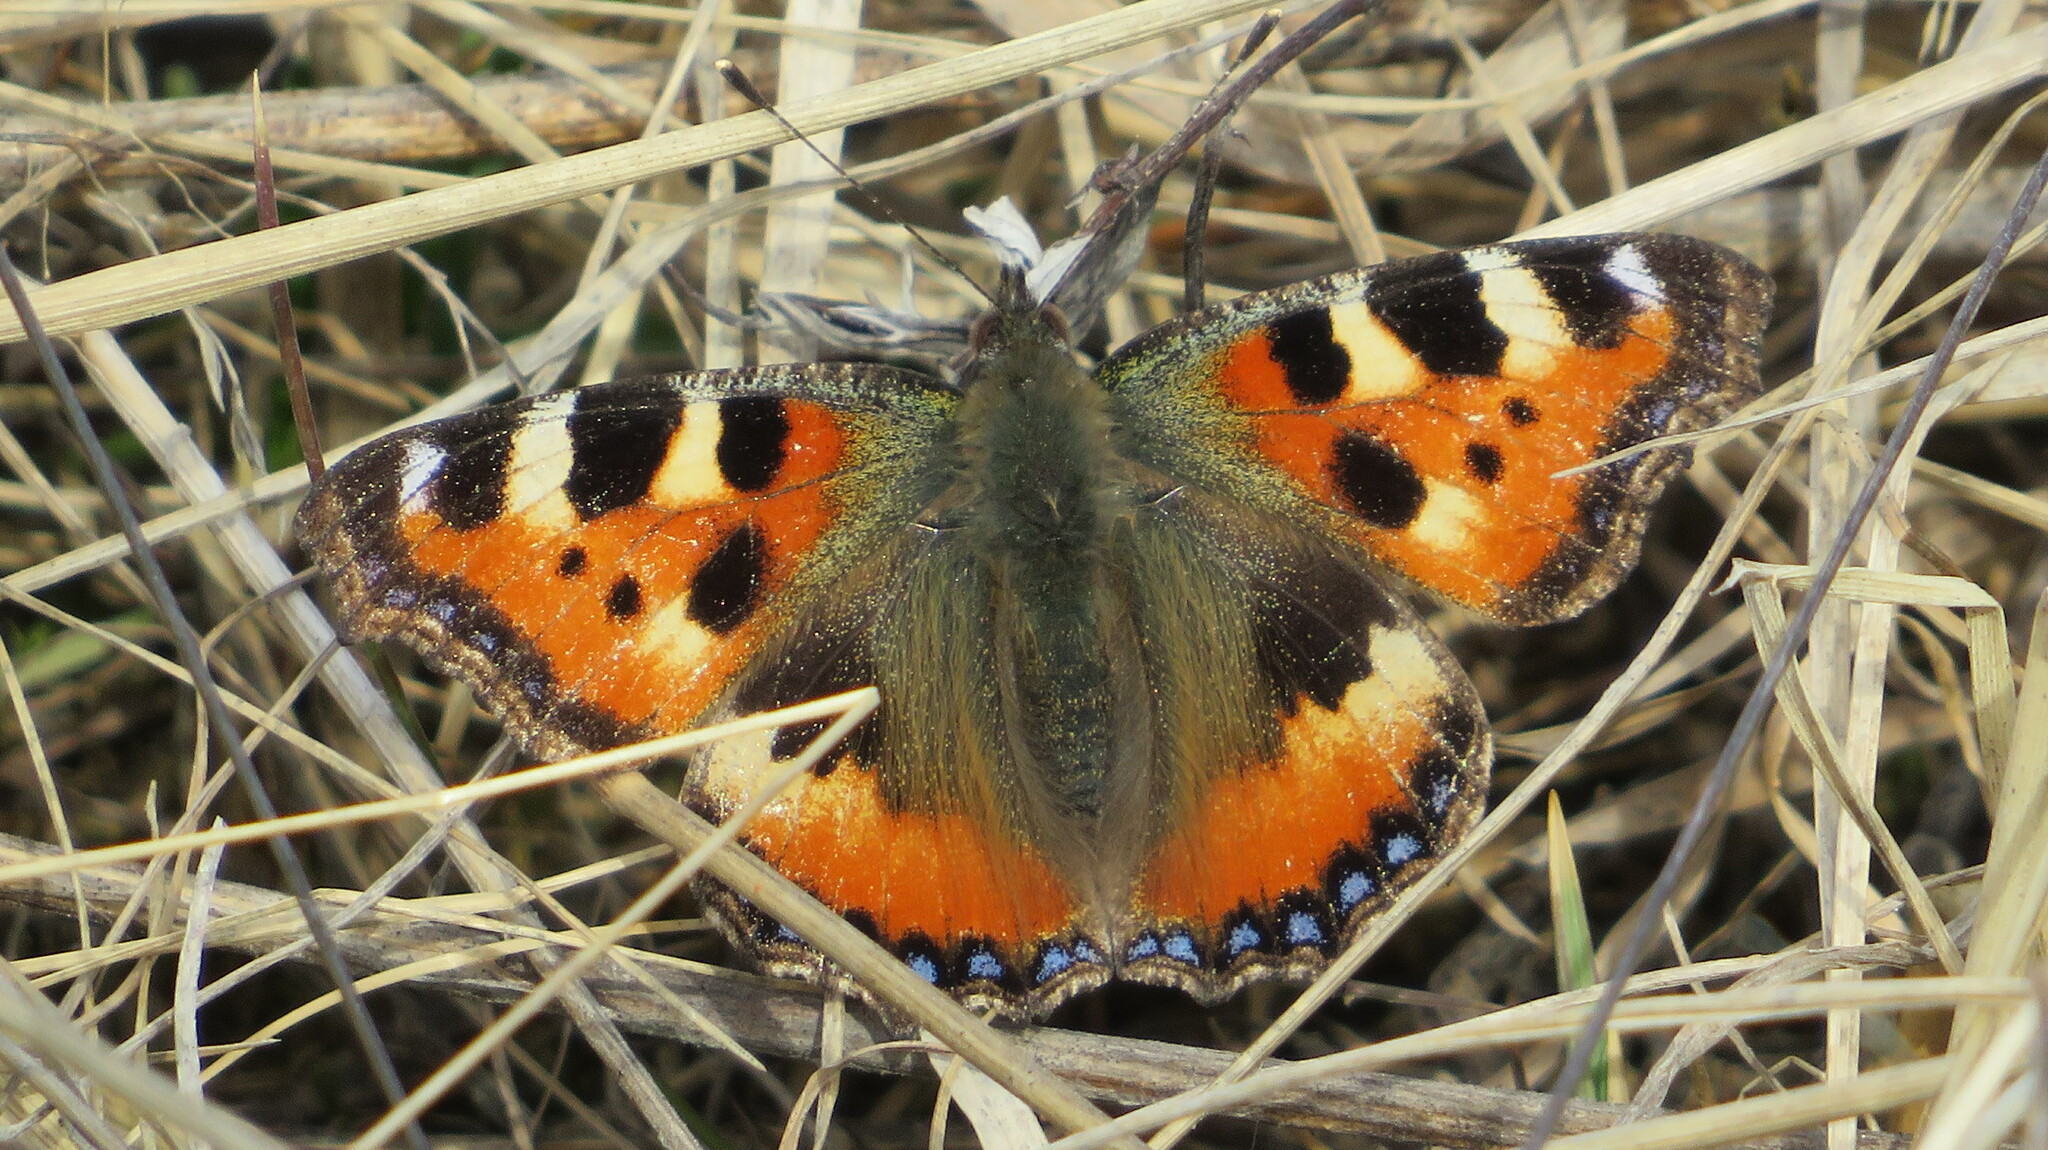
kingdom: Animalia
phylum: Arthropoda
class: Insecta
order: Lepidoptera
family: Nymphalidae
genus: Aglais
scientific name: Aglais urticae
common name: Small tortoiseshell
